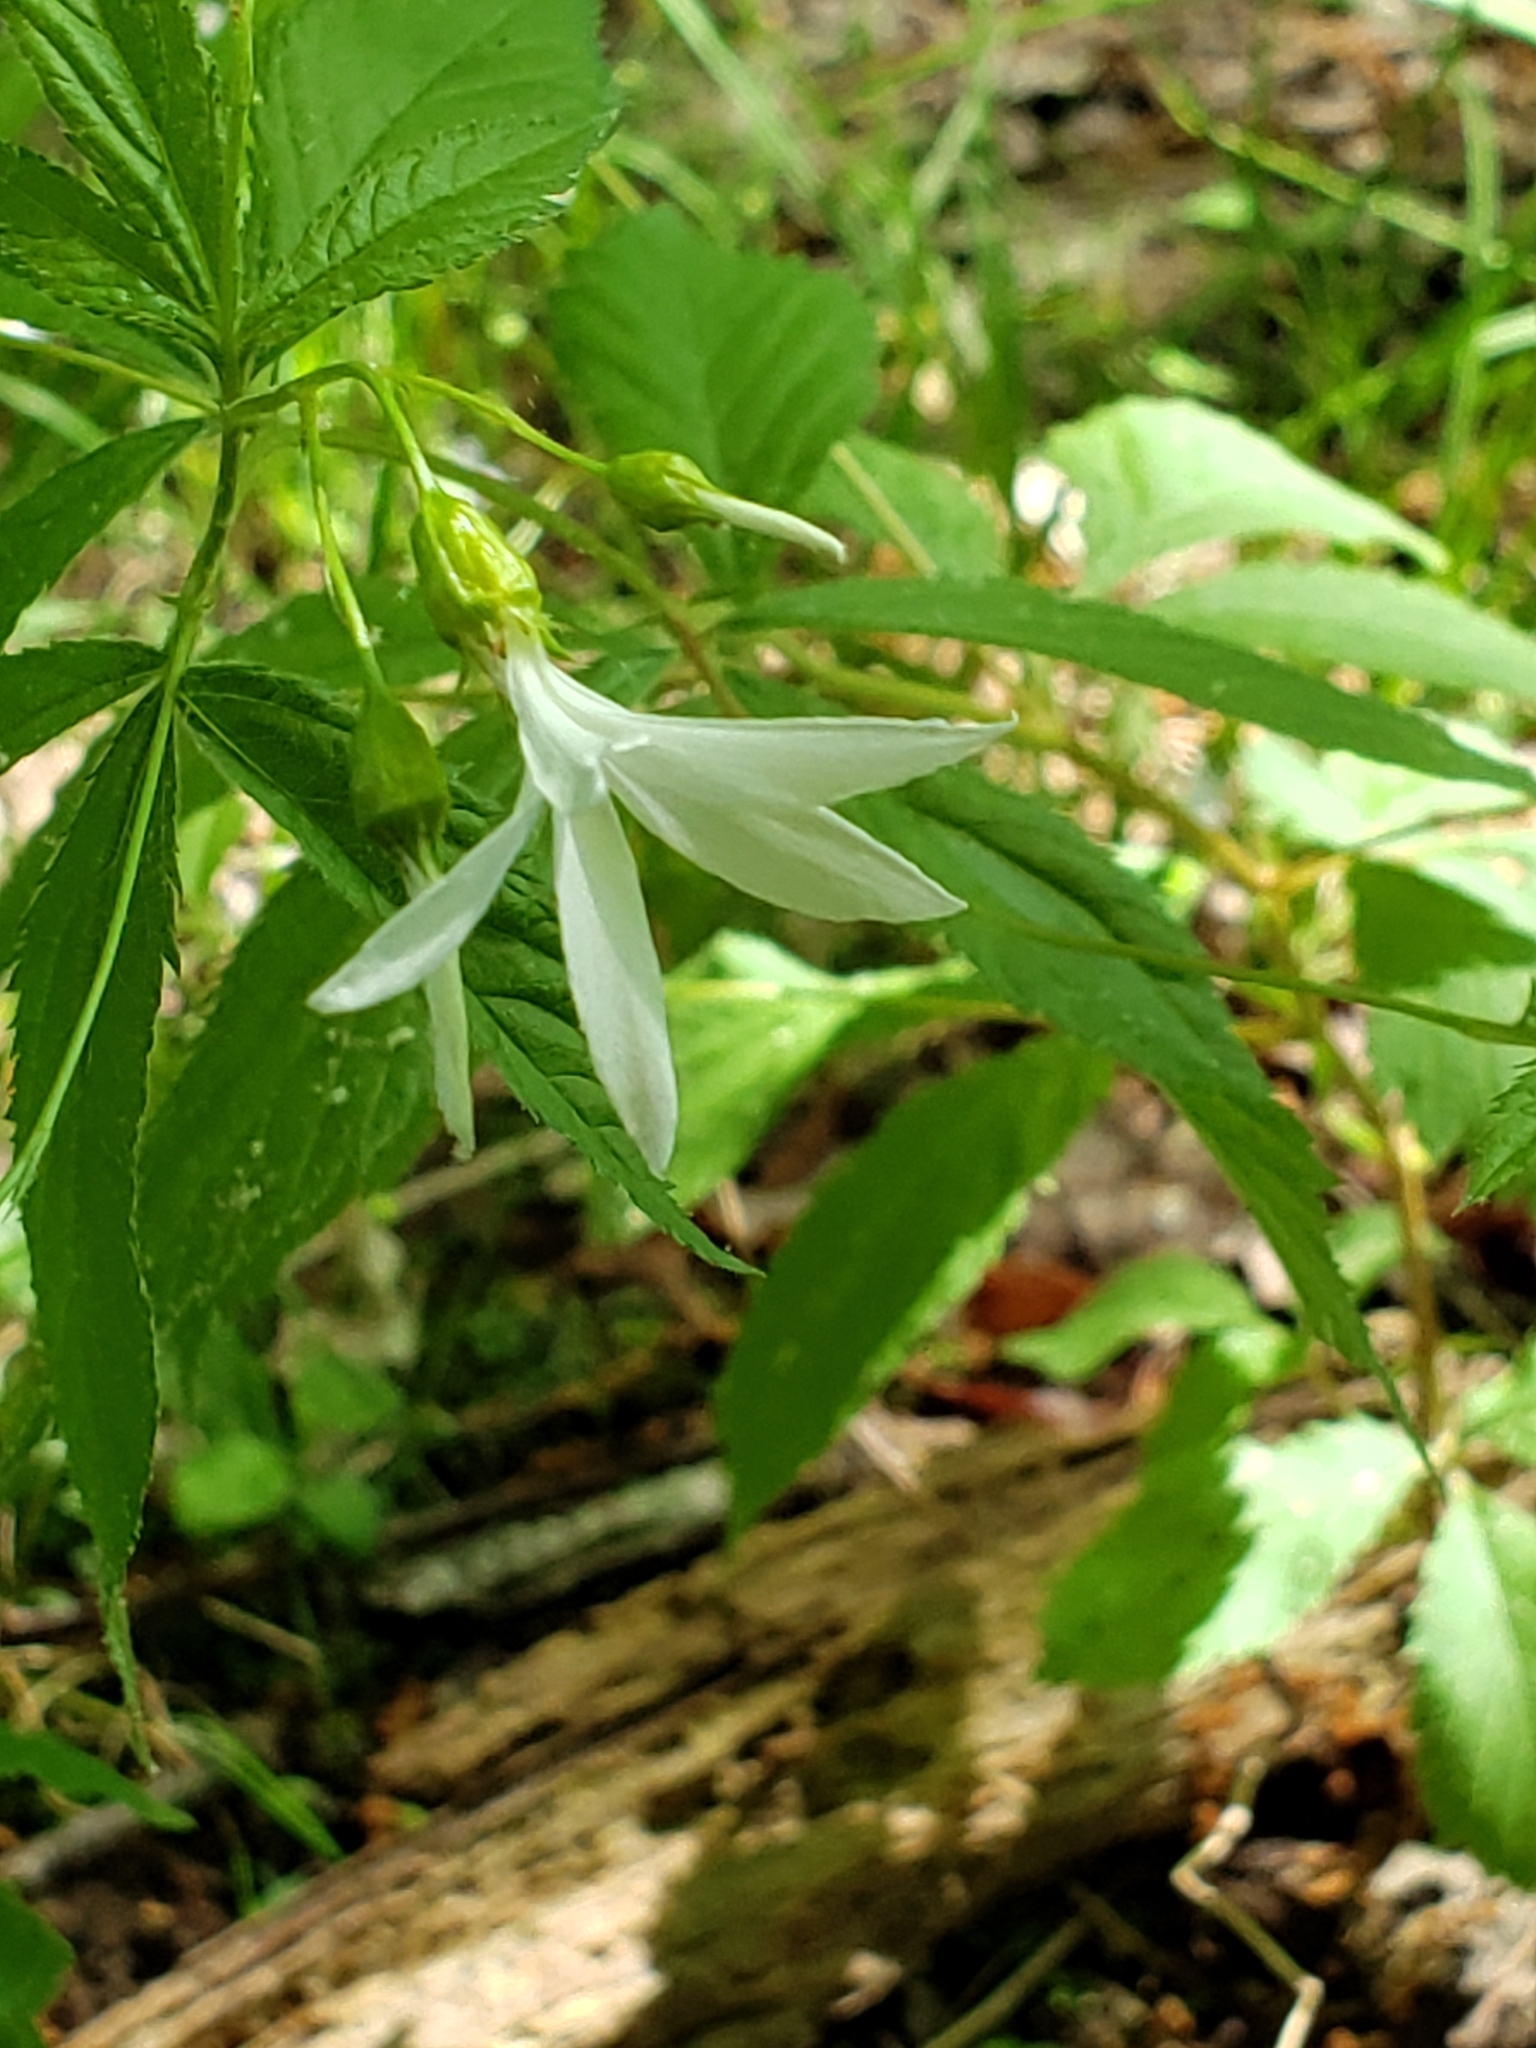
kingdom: Plantae
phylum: Tracheophyta
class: Magnoliopsida
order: Rosales
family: Rosaceae
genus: Gillenia
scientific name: Gillenia trifoliata
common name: Bowman's-root
